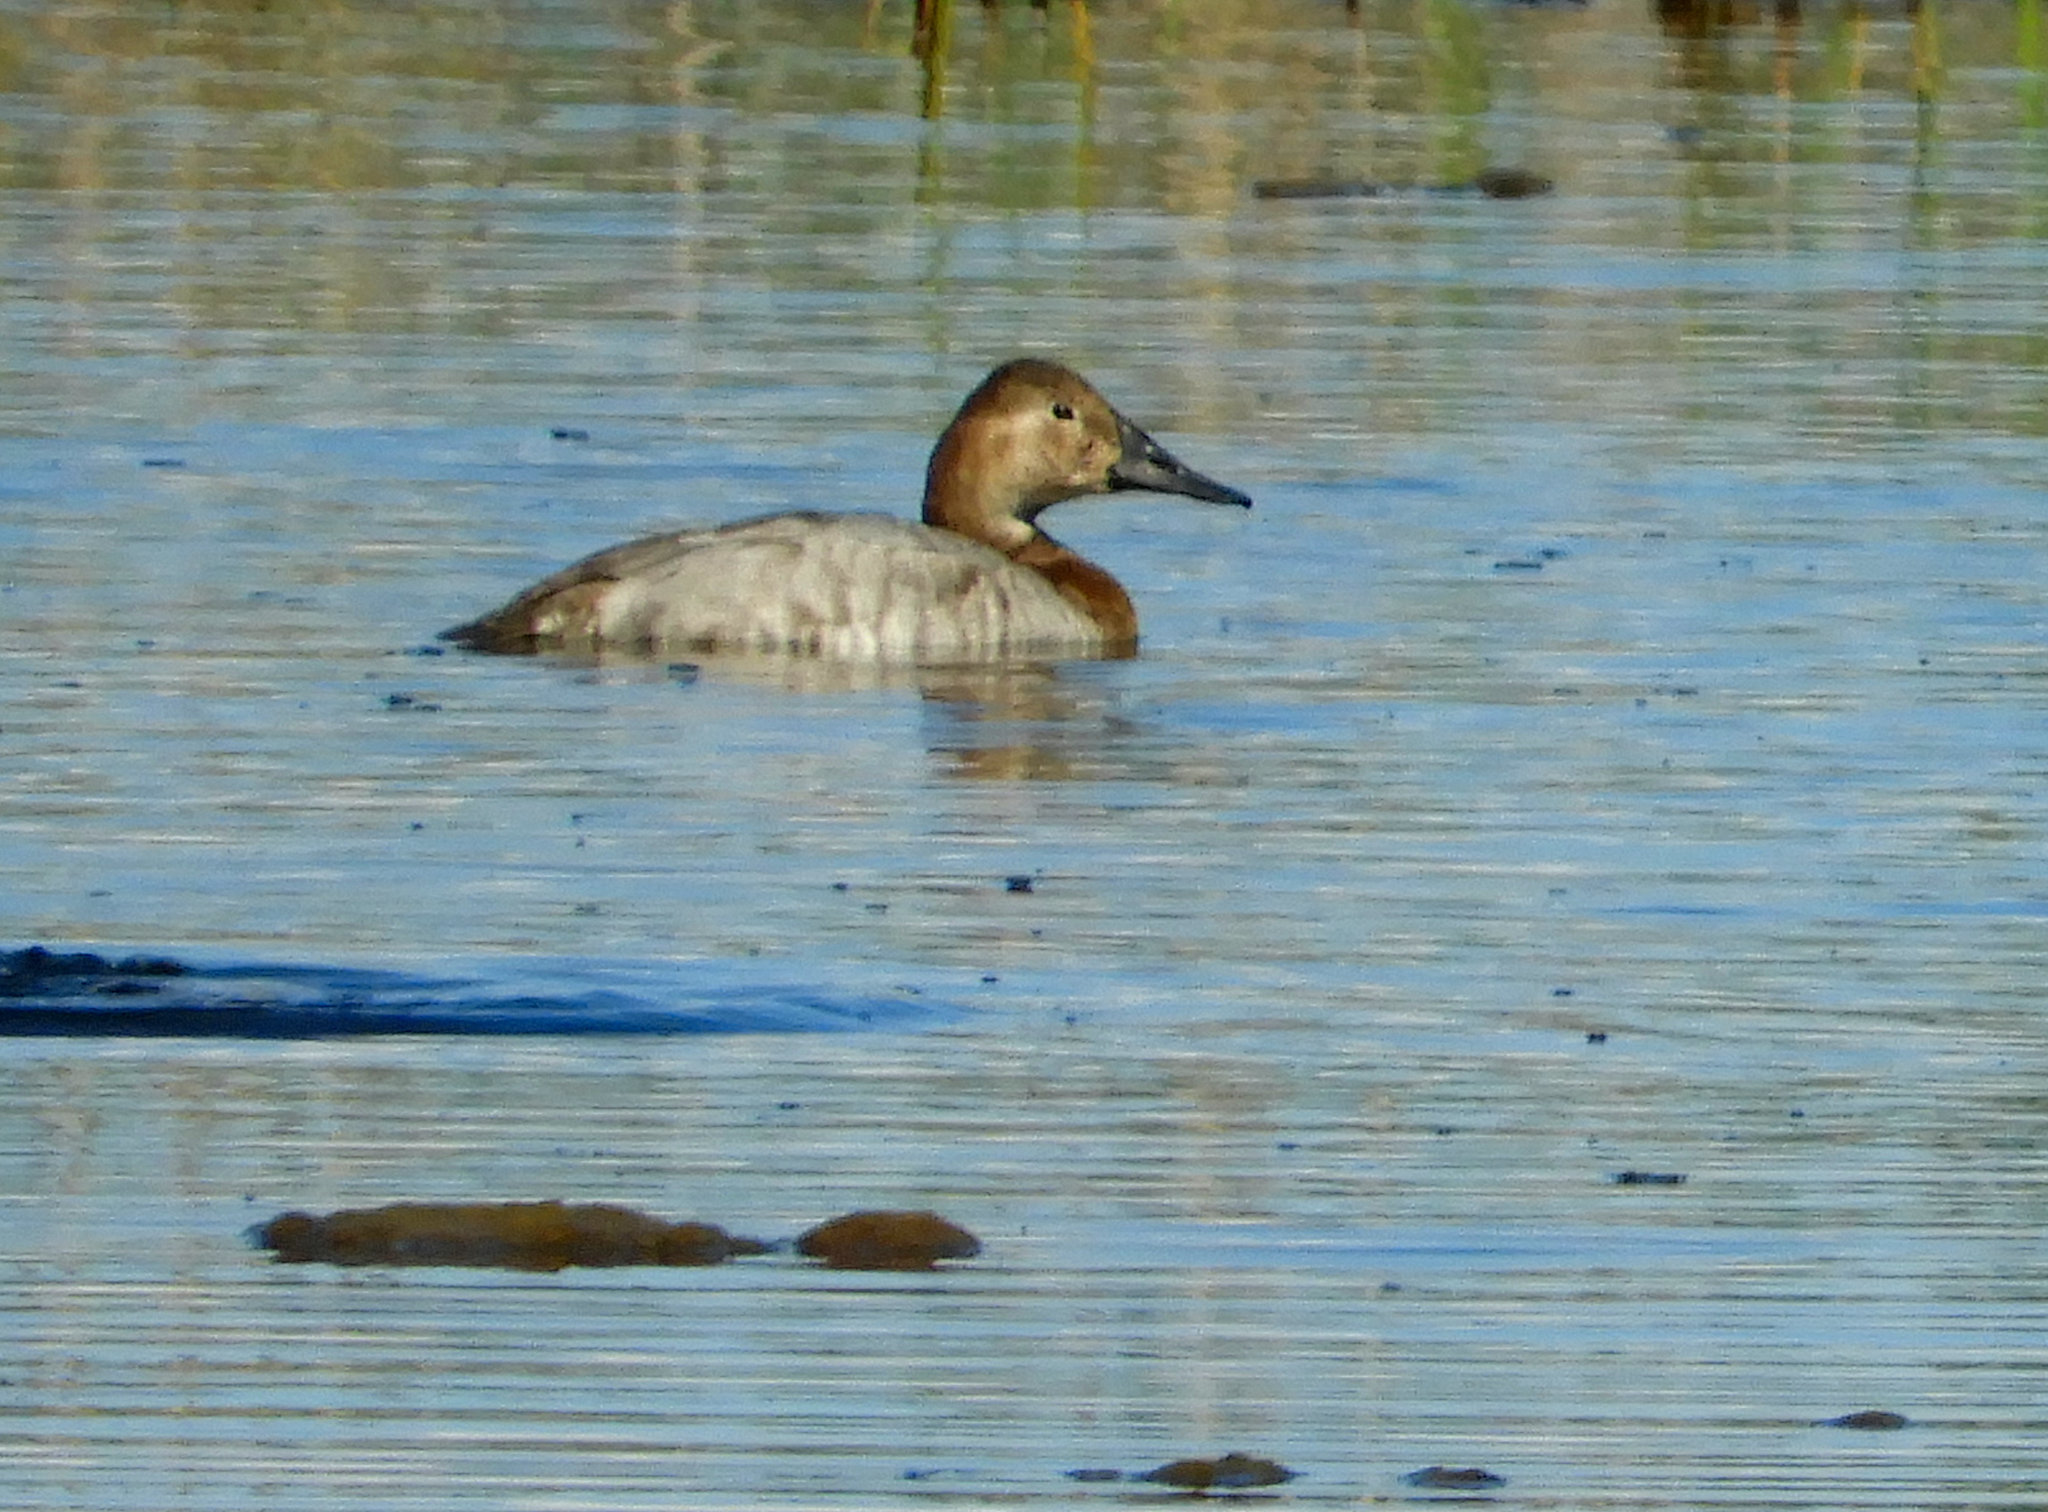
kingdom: Animalia
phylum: Chordata
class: Aves
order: Anseriformes
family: Anatidae
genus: Aythya
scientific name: Aythya valisineria
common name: Canvasback
